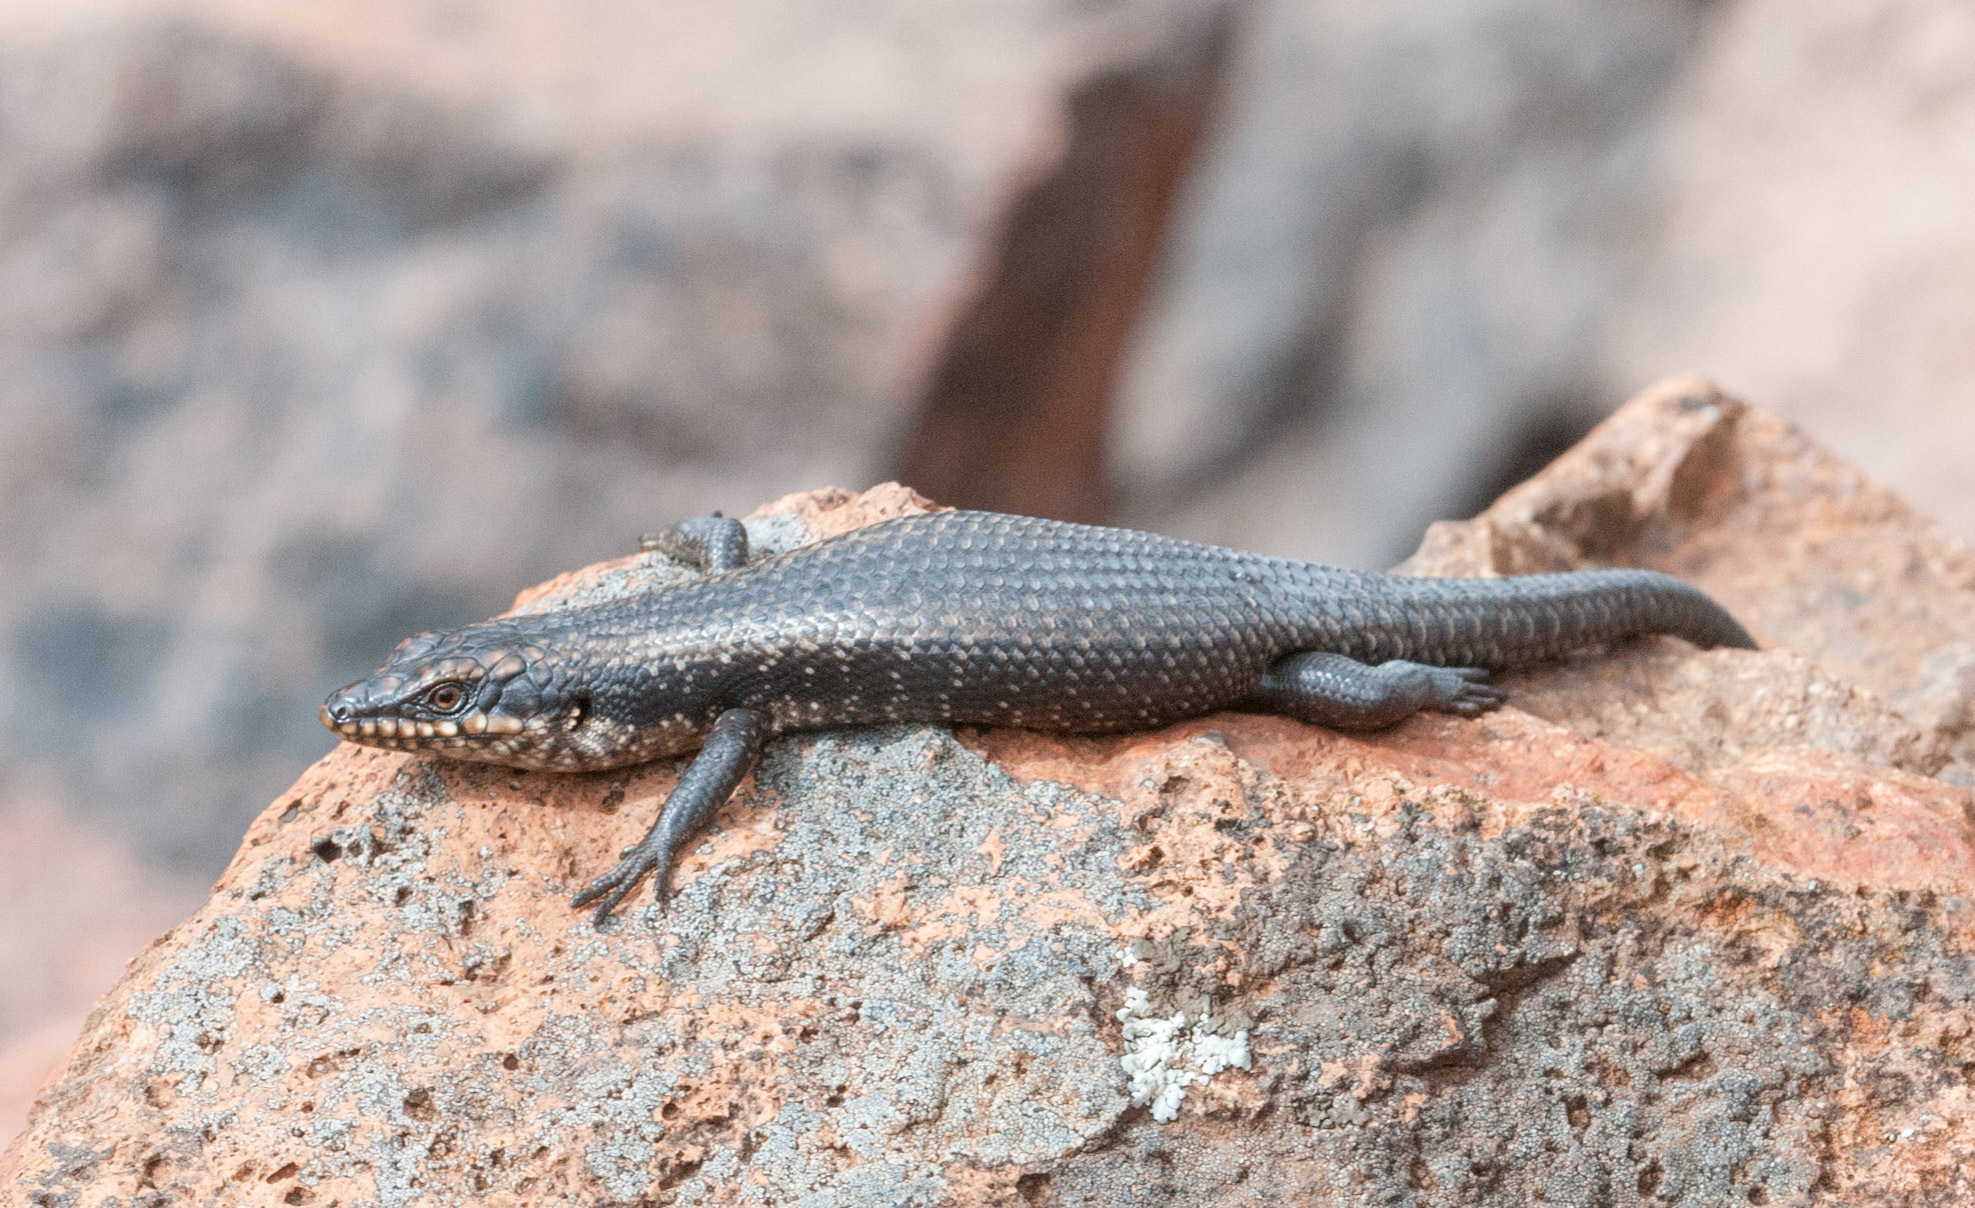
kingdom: Animalia
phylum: Chordata
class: Squamata
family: Scincidae
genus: Egernia
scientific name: Egernia striolata
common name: Tree skink
